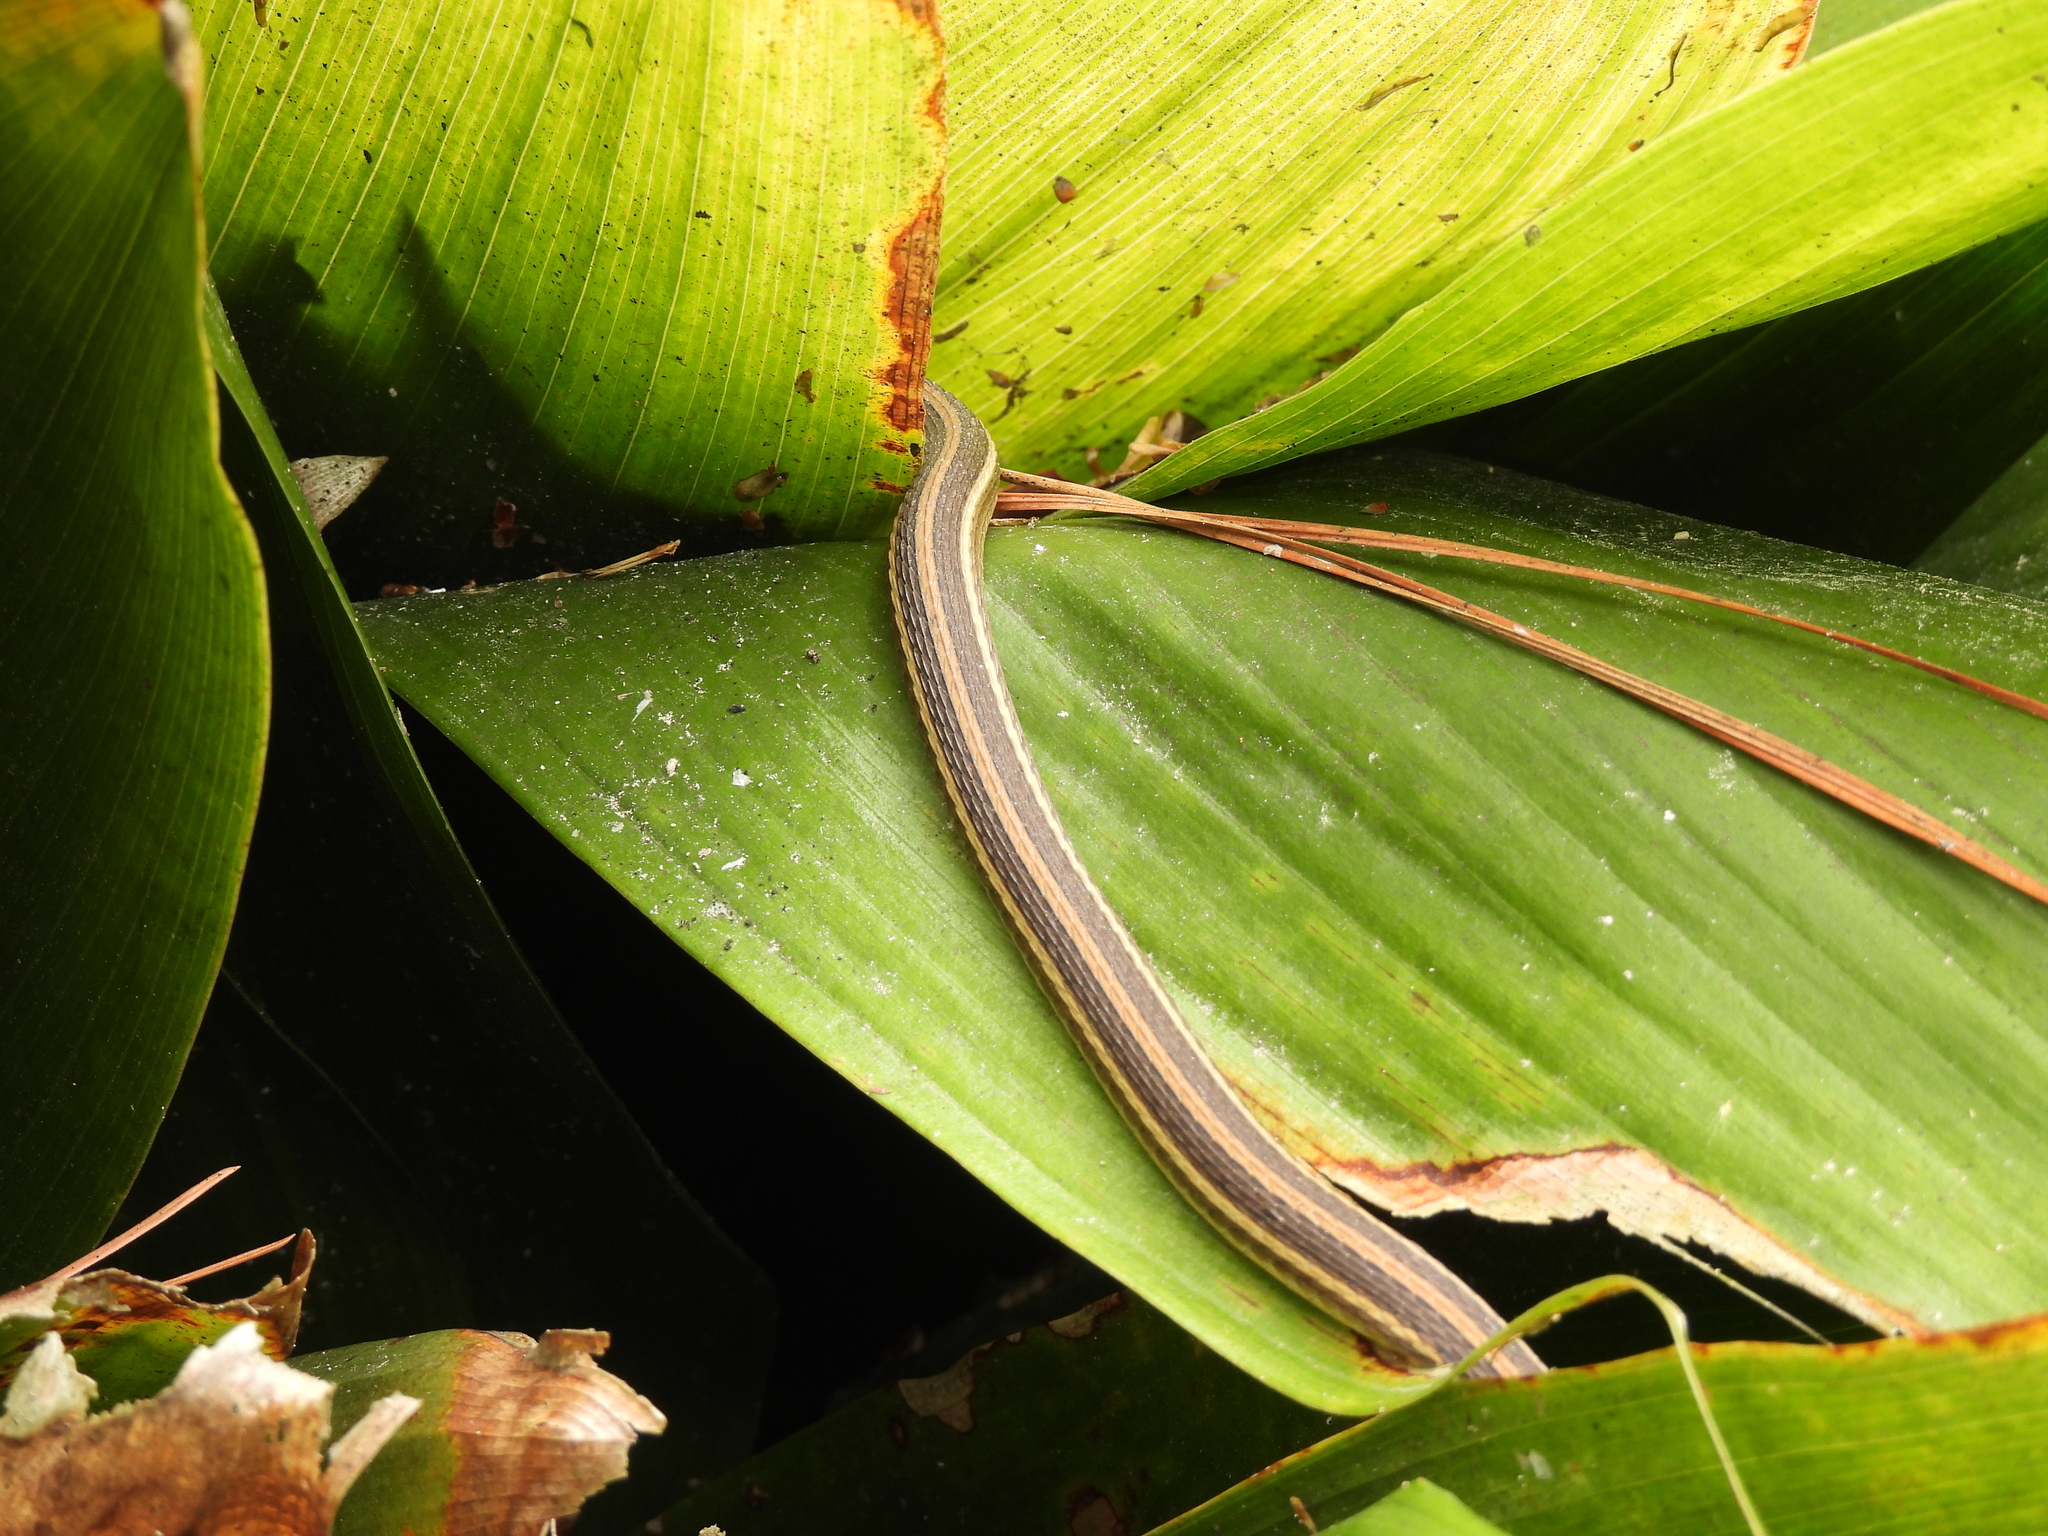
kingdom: Animalia
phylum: Chordata
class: Squamata
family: Colubridae
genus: Thamnophis
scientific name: Thamnophis proximus
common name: Western ribbon snake
